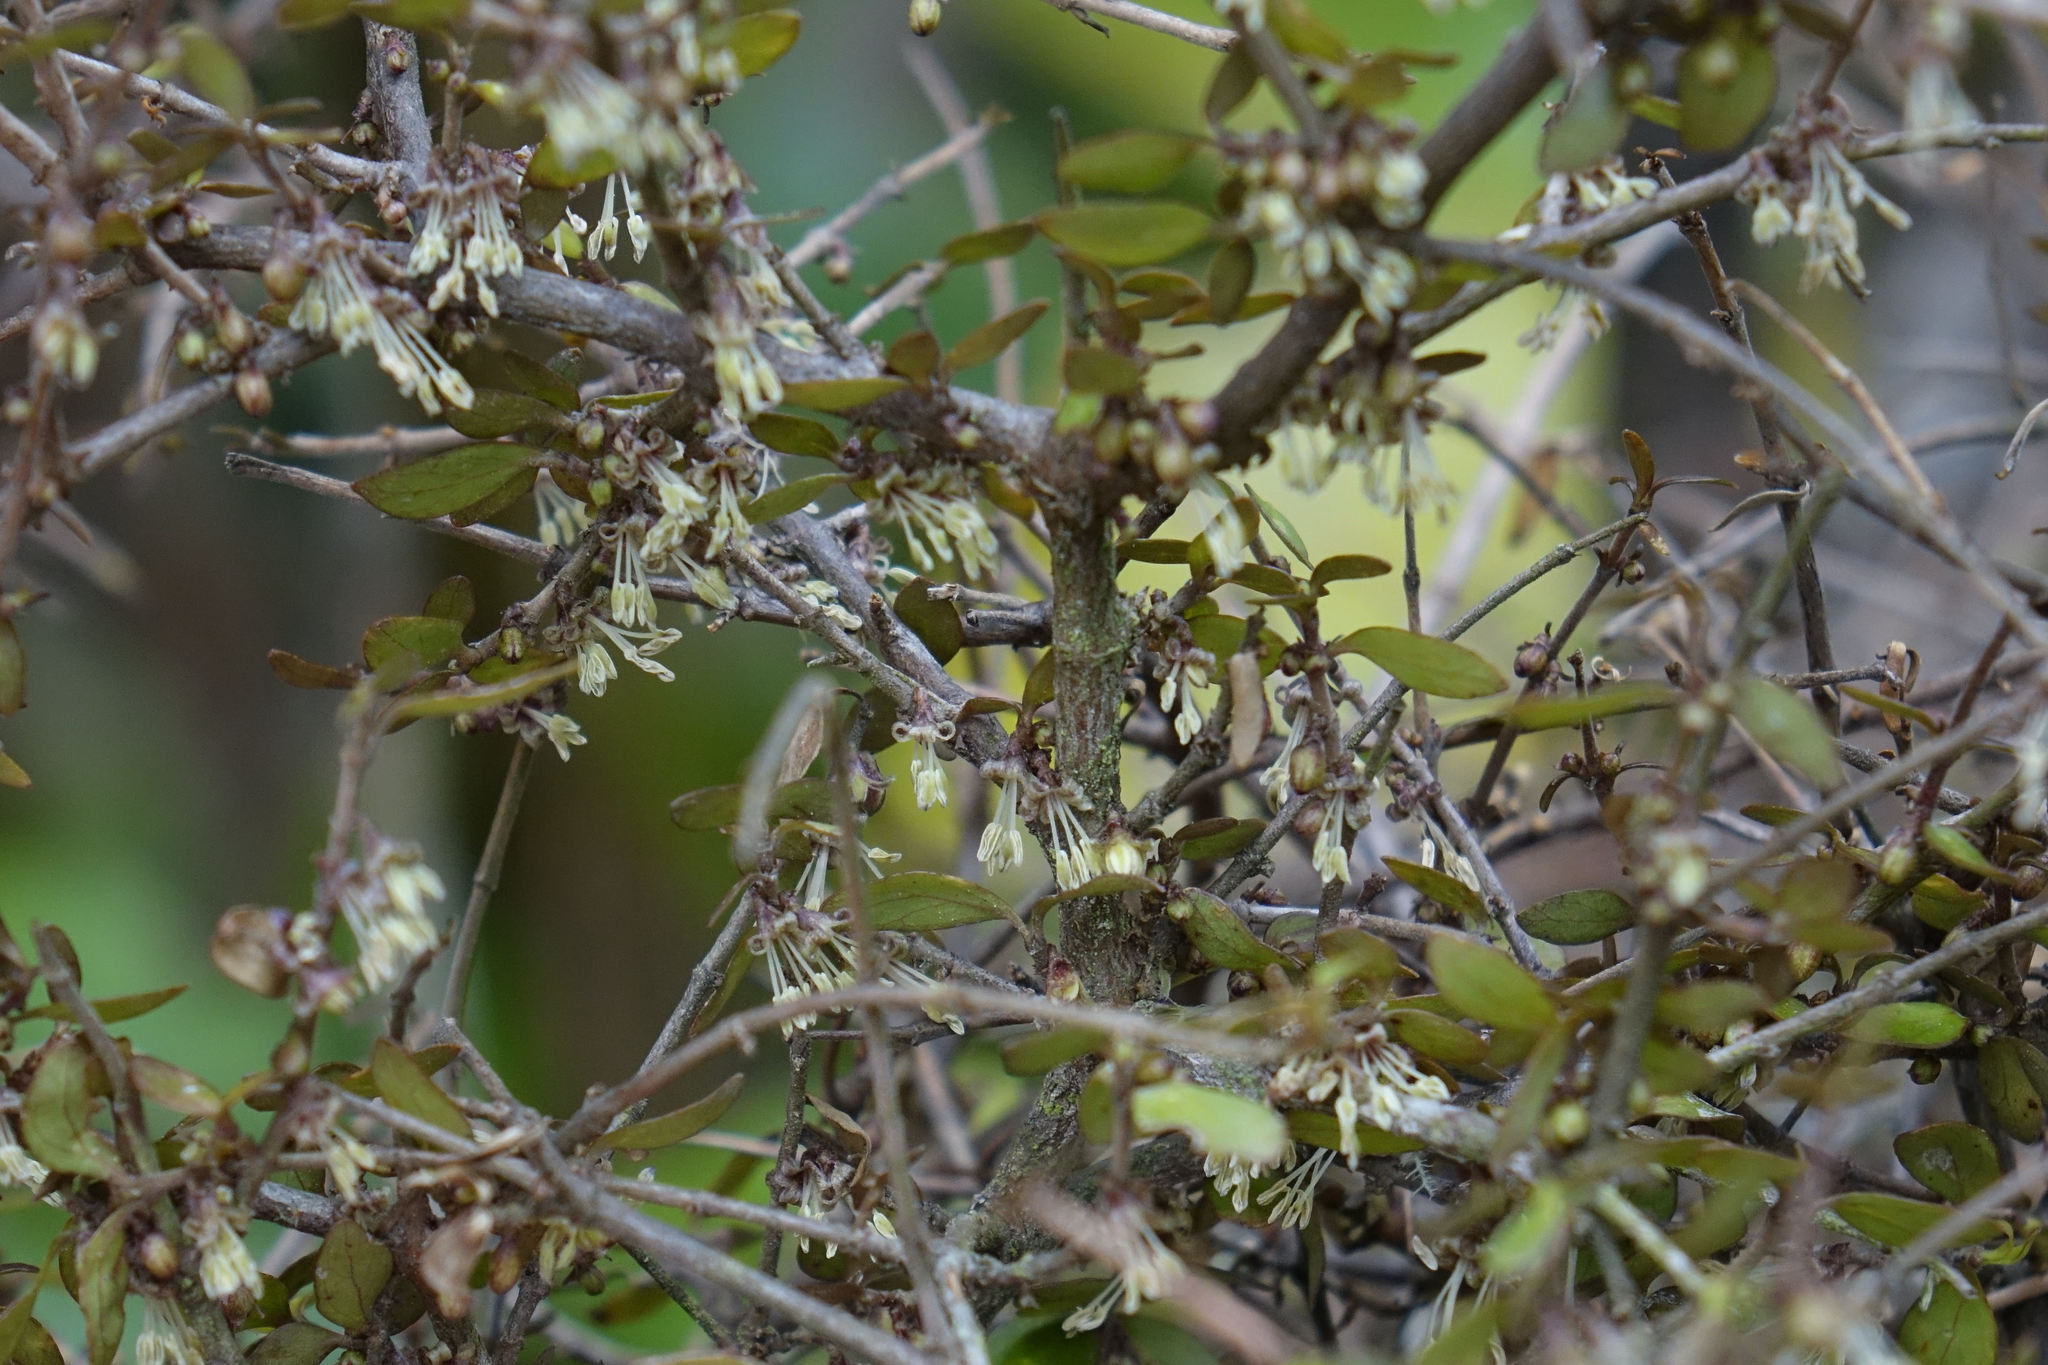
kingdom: Plantae
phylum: Tracheophyta
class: Magnoliopsida
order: Gentianales
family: Rubiaceae
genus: Coprosma
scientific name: Coprosma rhamnoides
